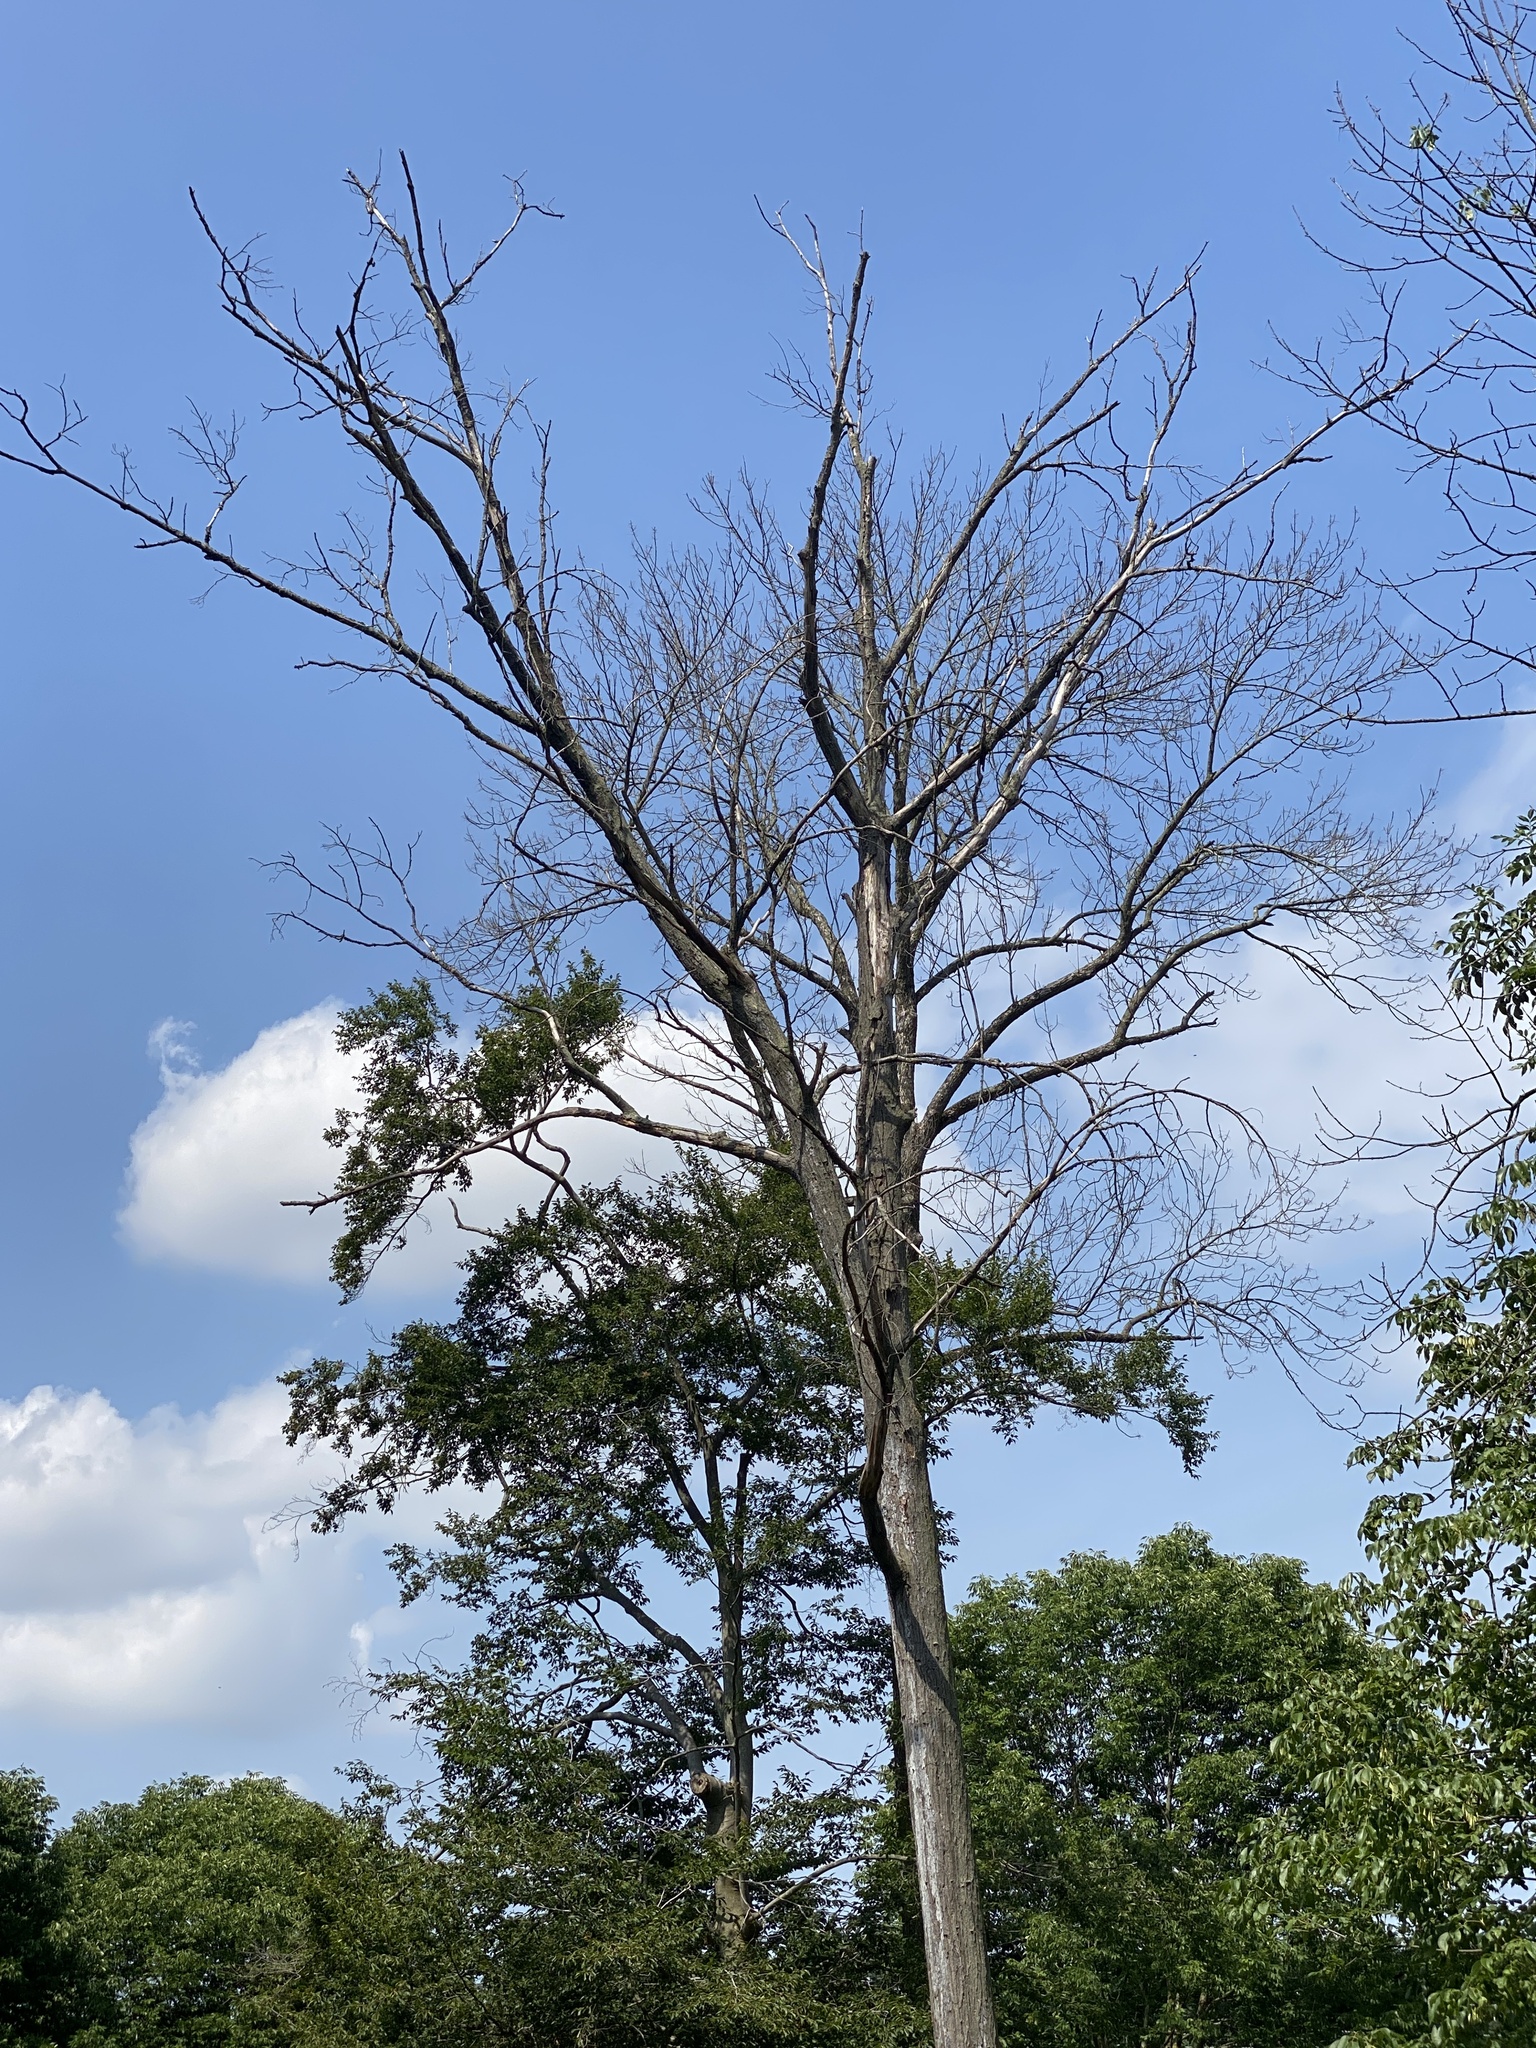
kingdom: Animalia
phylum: Arthropoda
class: Insecta
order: Coleoptera
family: Buprestidae
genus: Agrilus
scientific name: Agrilus planipennis
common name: Emerald ash borer
